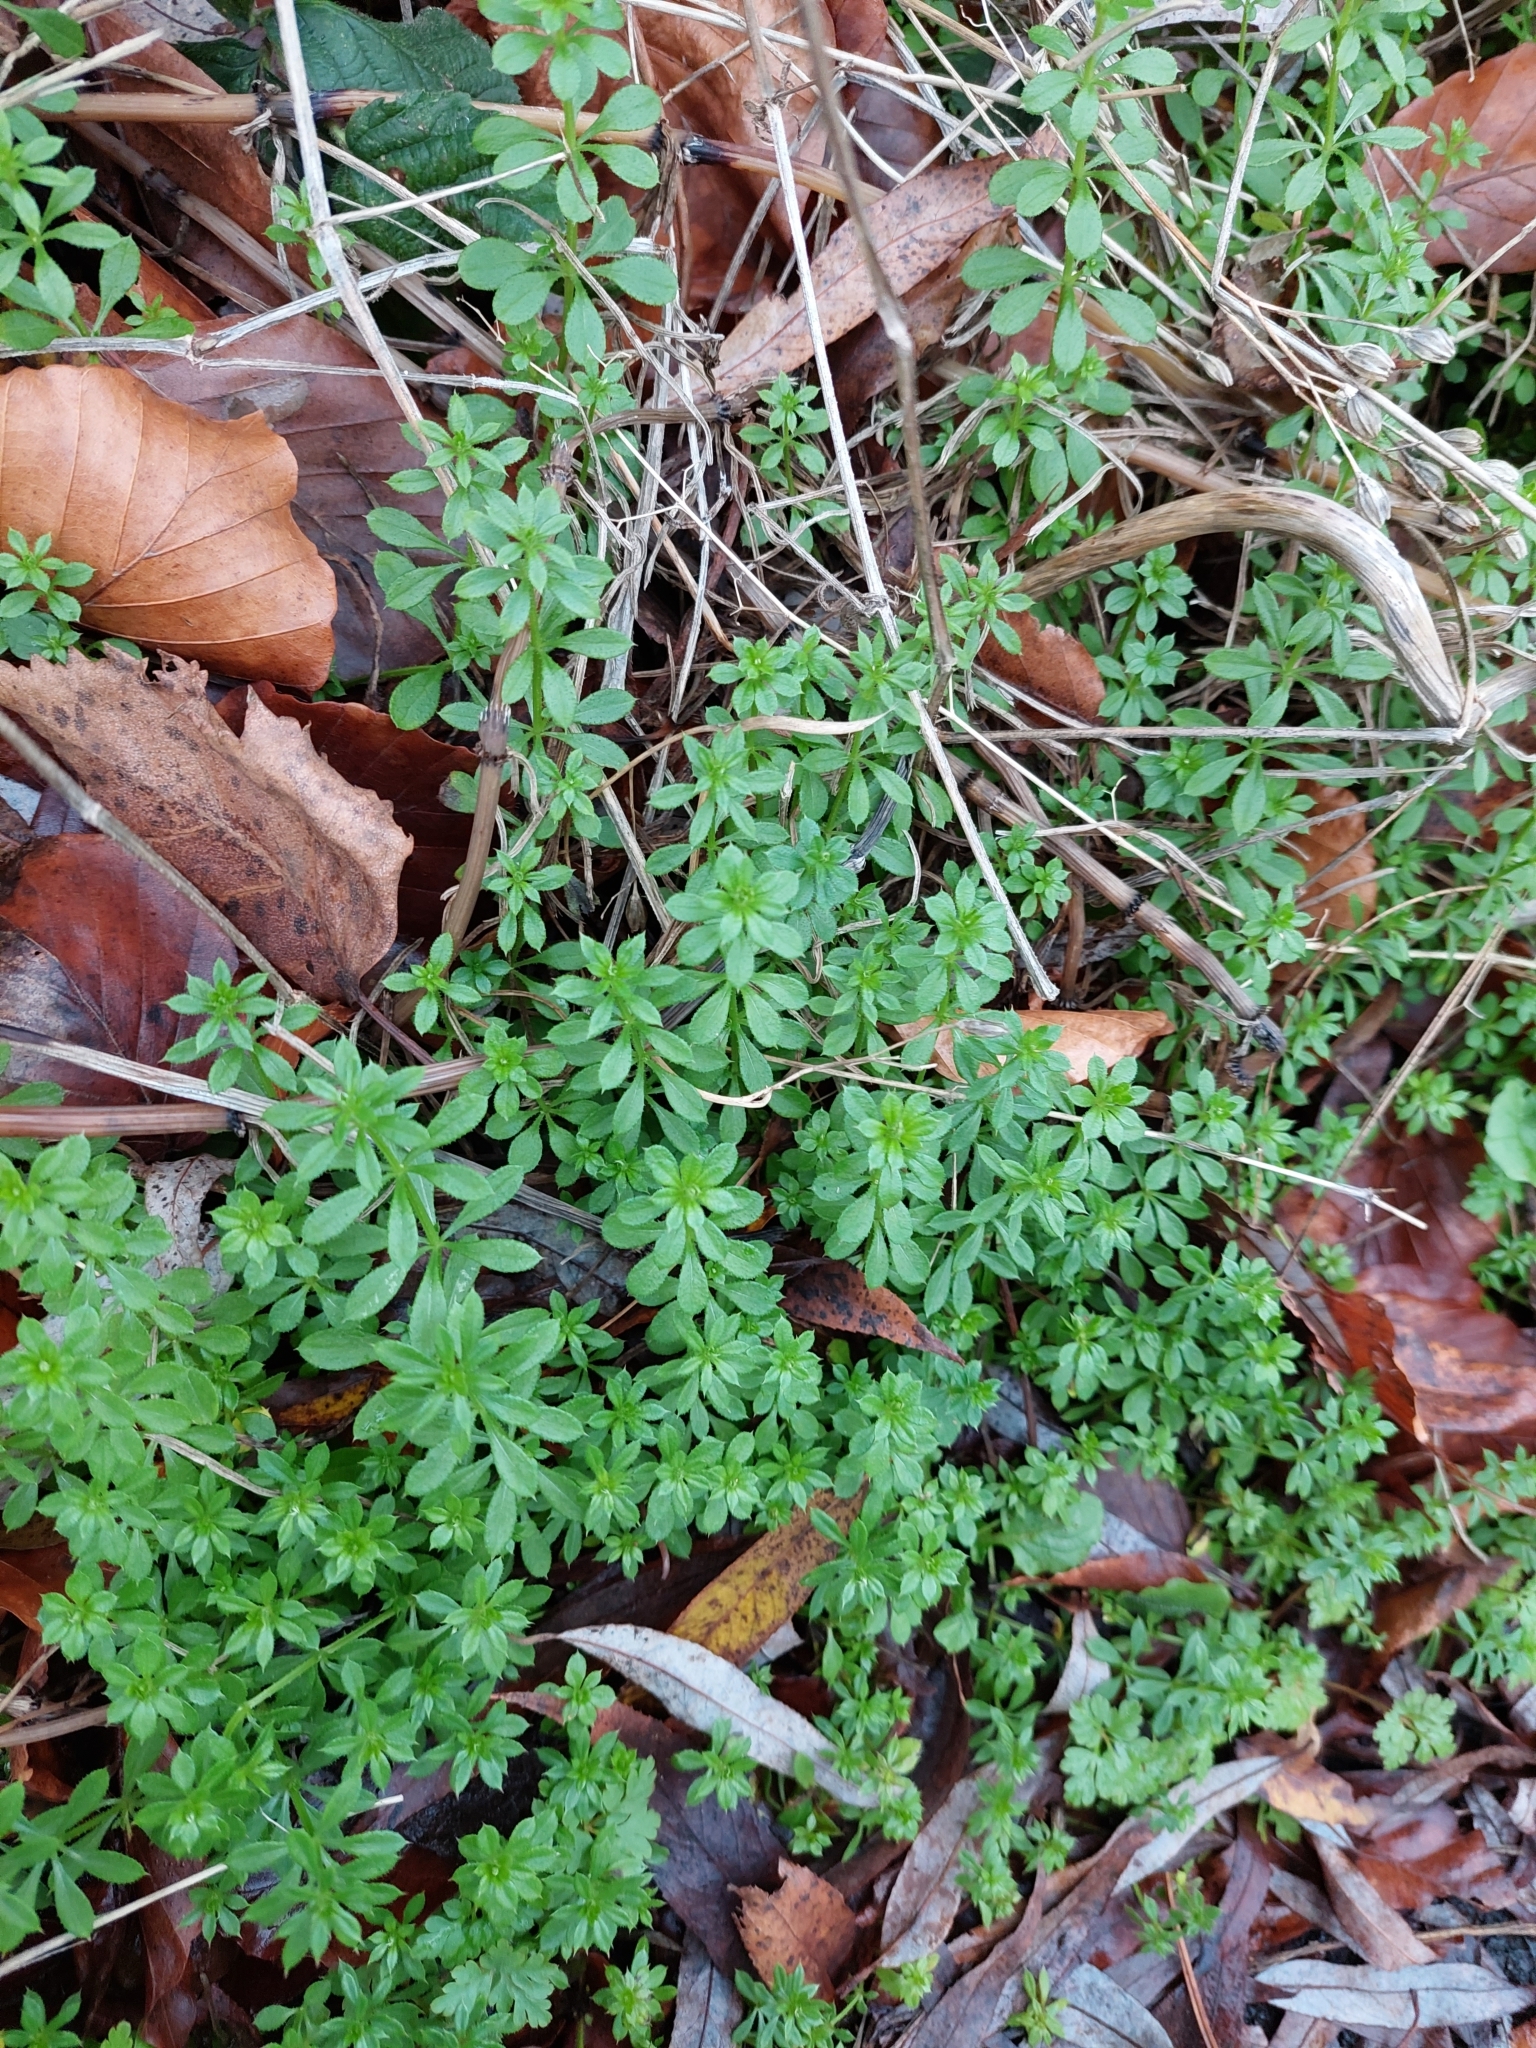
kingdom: Plantae
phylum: Tracheophyta
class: Magnoliopsida
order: Gentianales
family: Rubiaceae
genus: Galium
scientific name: Galium aparine
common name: Cleavers
